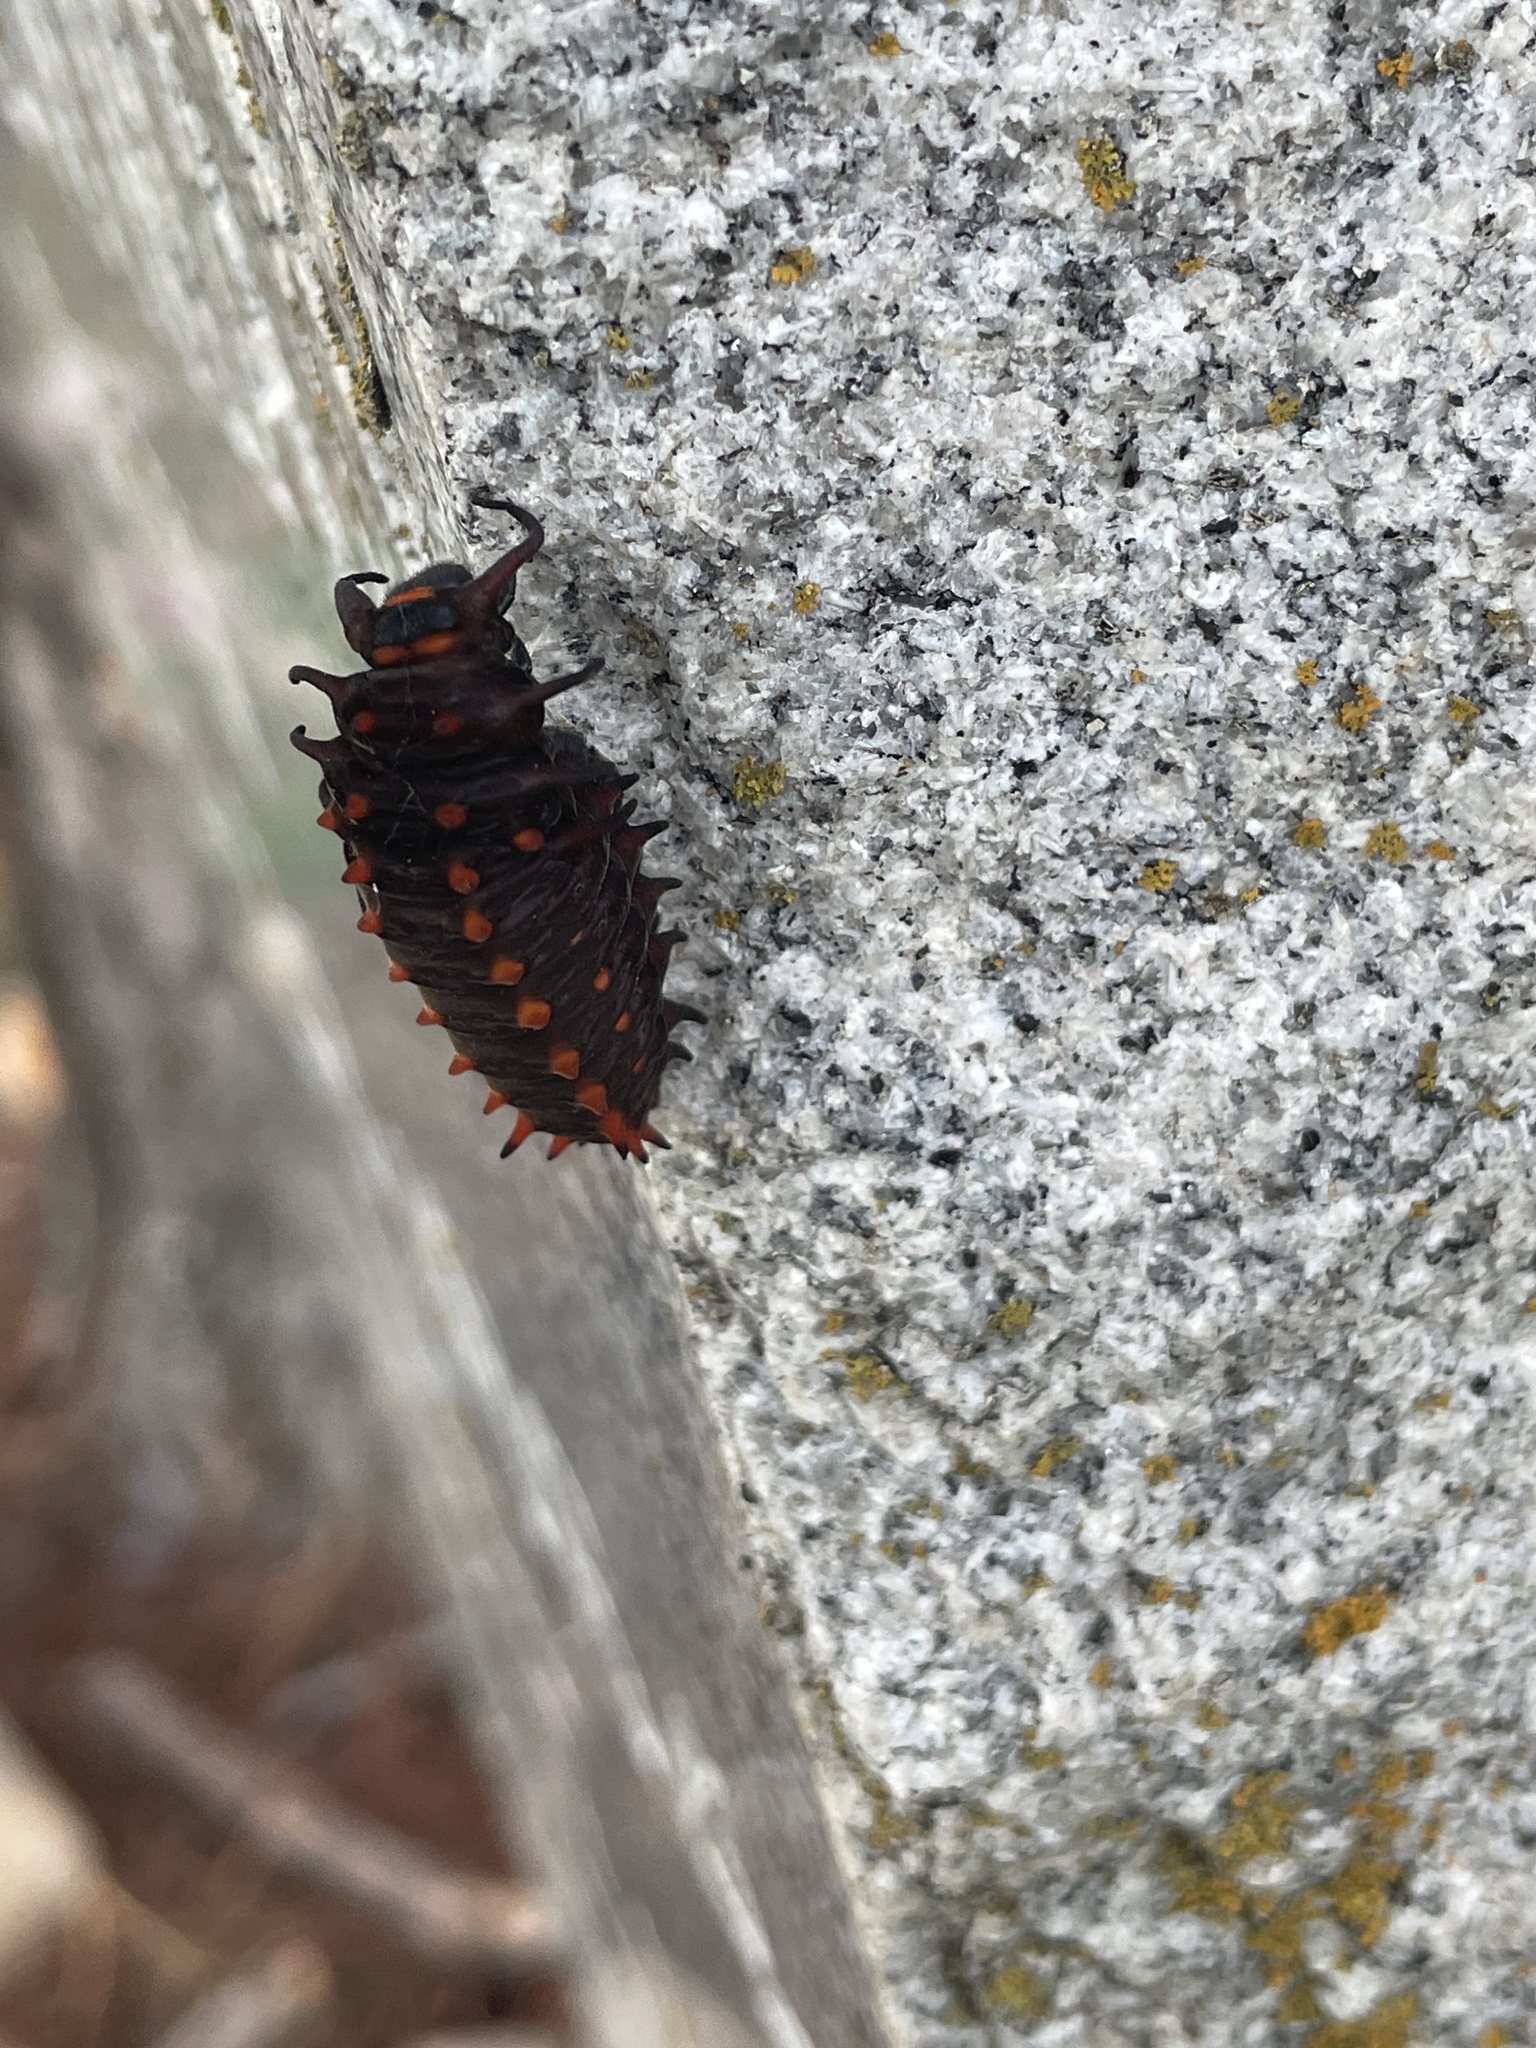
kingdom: Animalia
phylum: Arthropoda
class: Insecta
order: Lepidoptera
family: Papilionidae
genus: Battus
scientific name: Battus philenor
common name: Pipevine swallowtail
